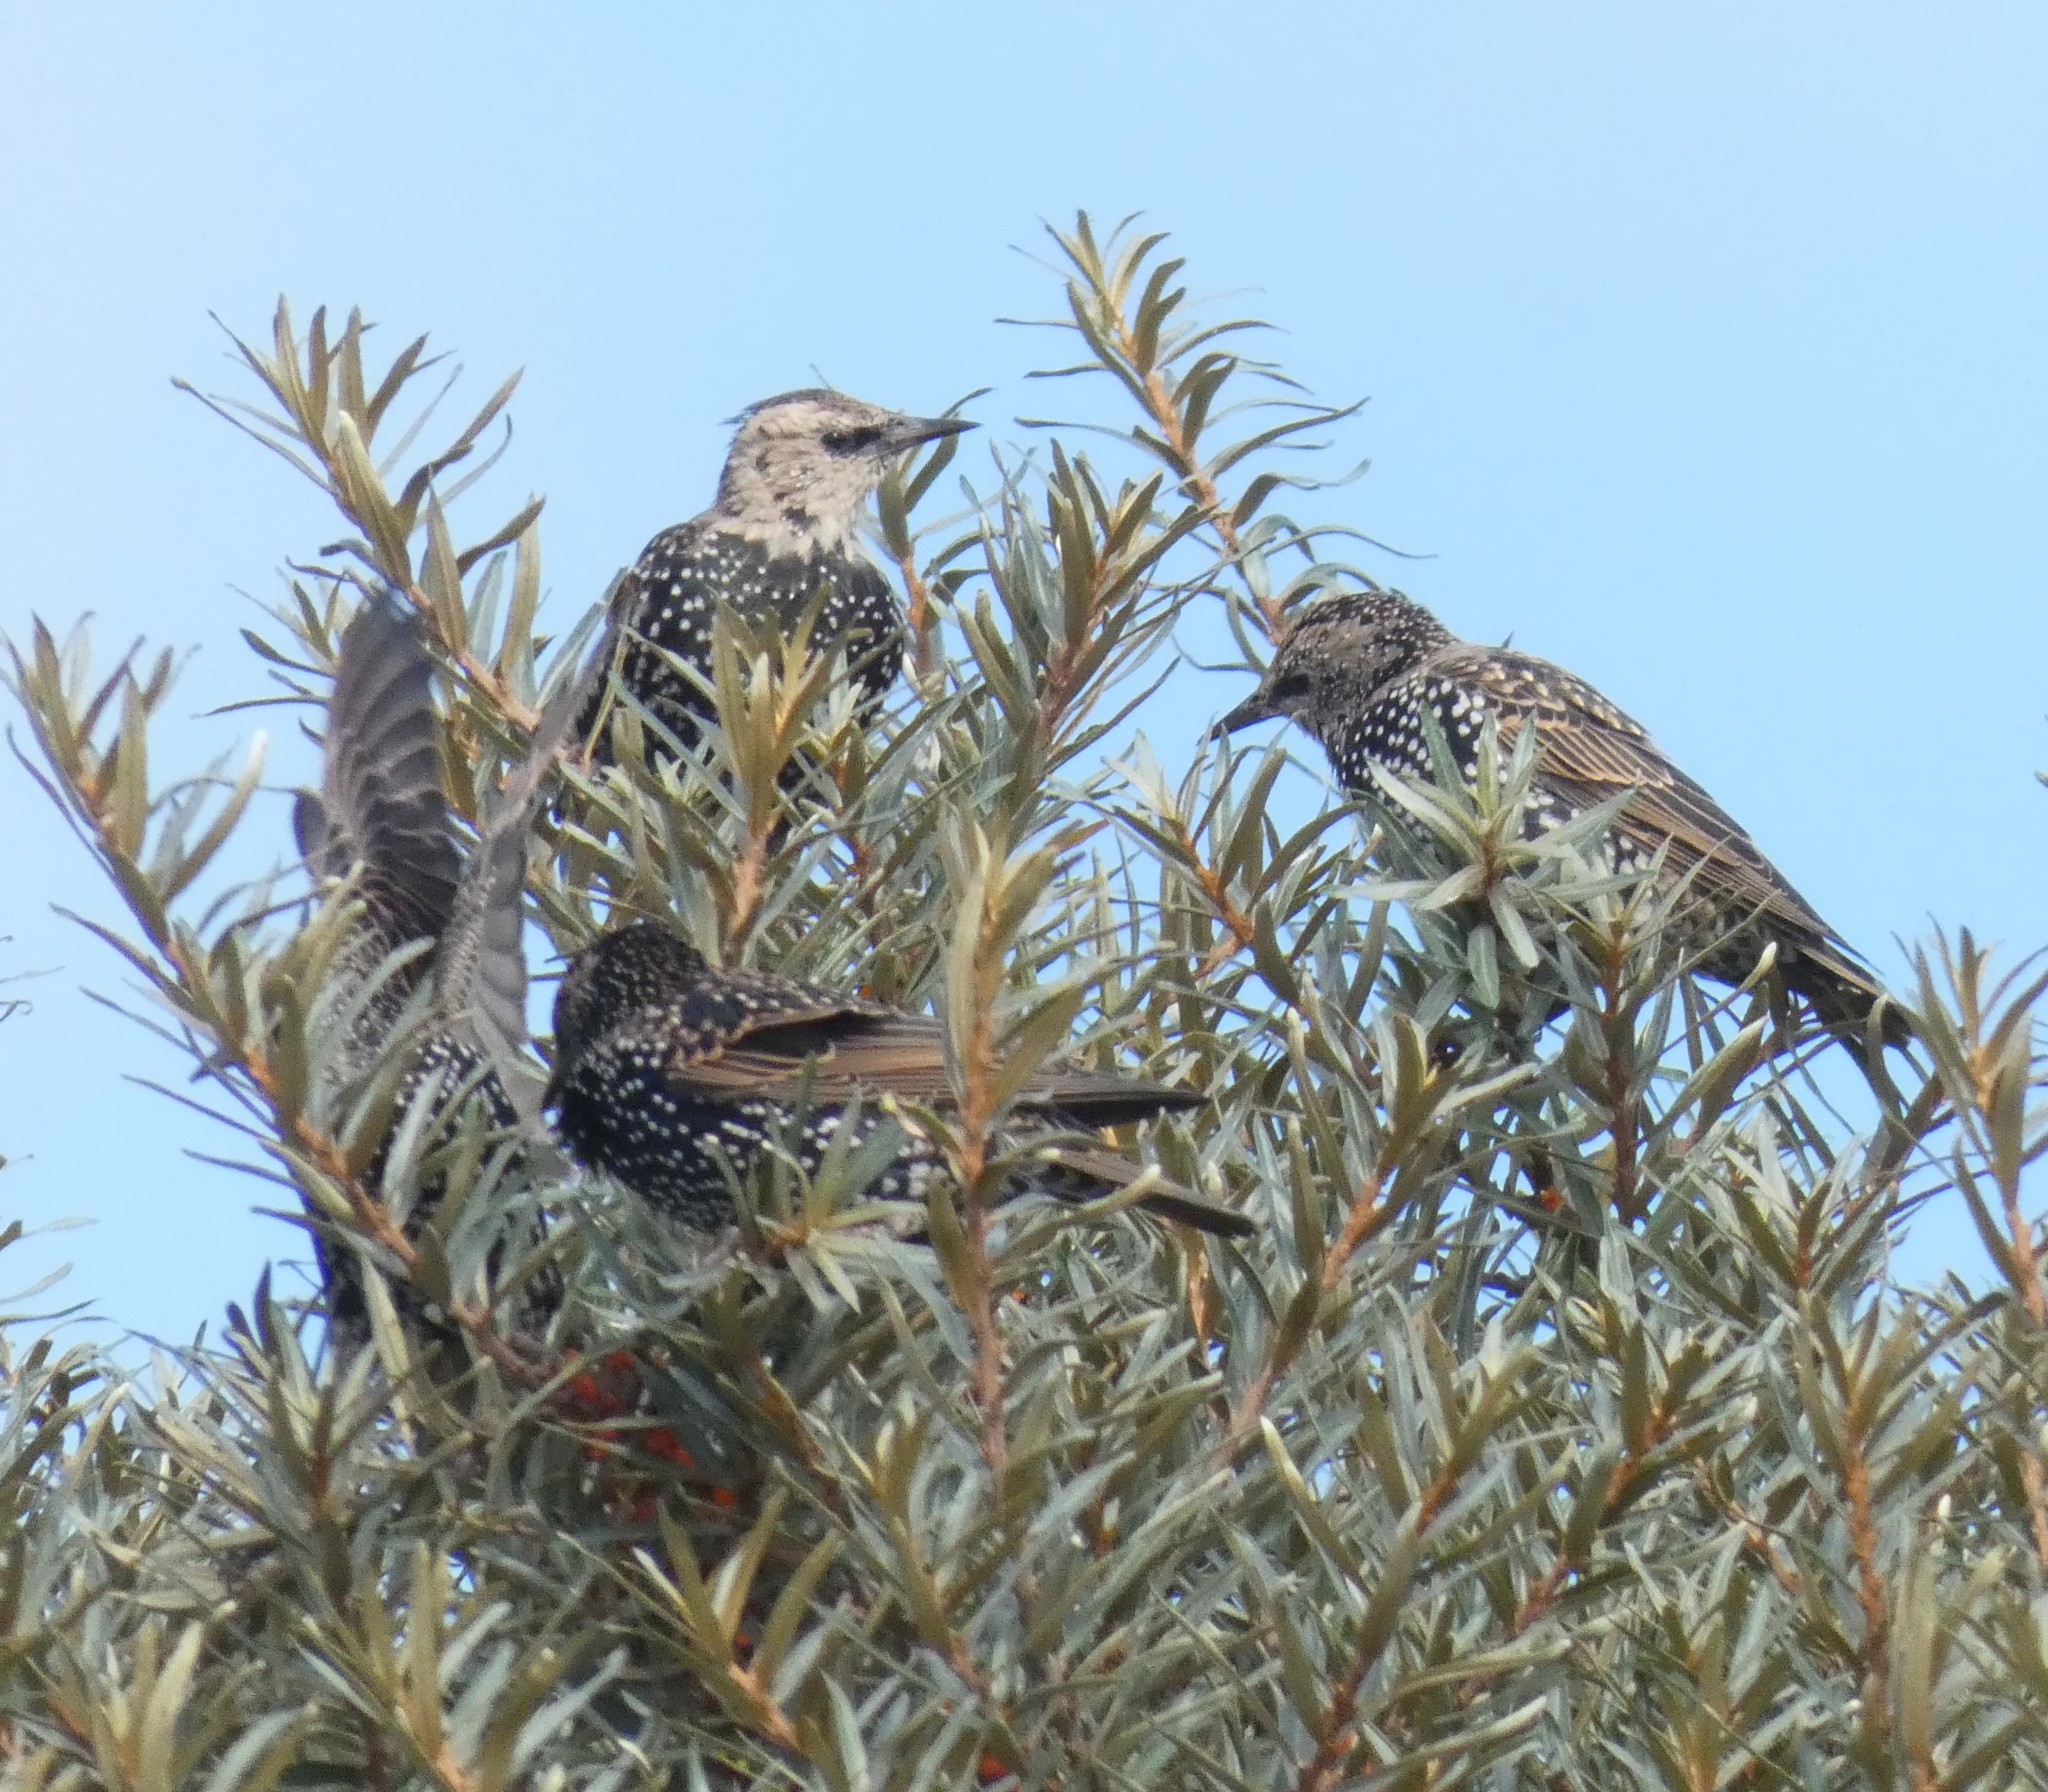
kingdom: Animalia
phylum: Chordata
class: Aves
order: Passeriformes
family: Sturnidae
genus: Sturnus
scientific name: Sturnus vulgaris
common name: Common starling
